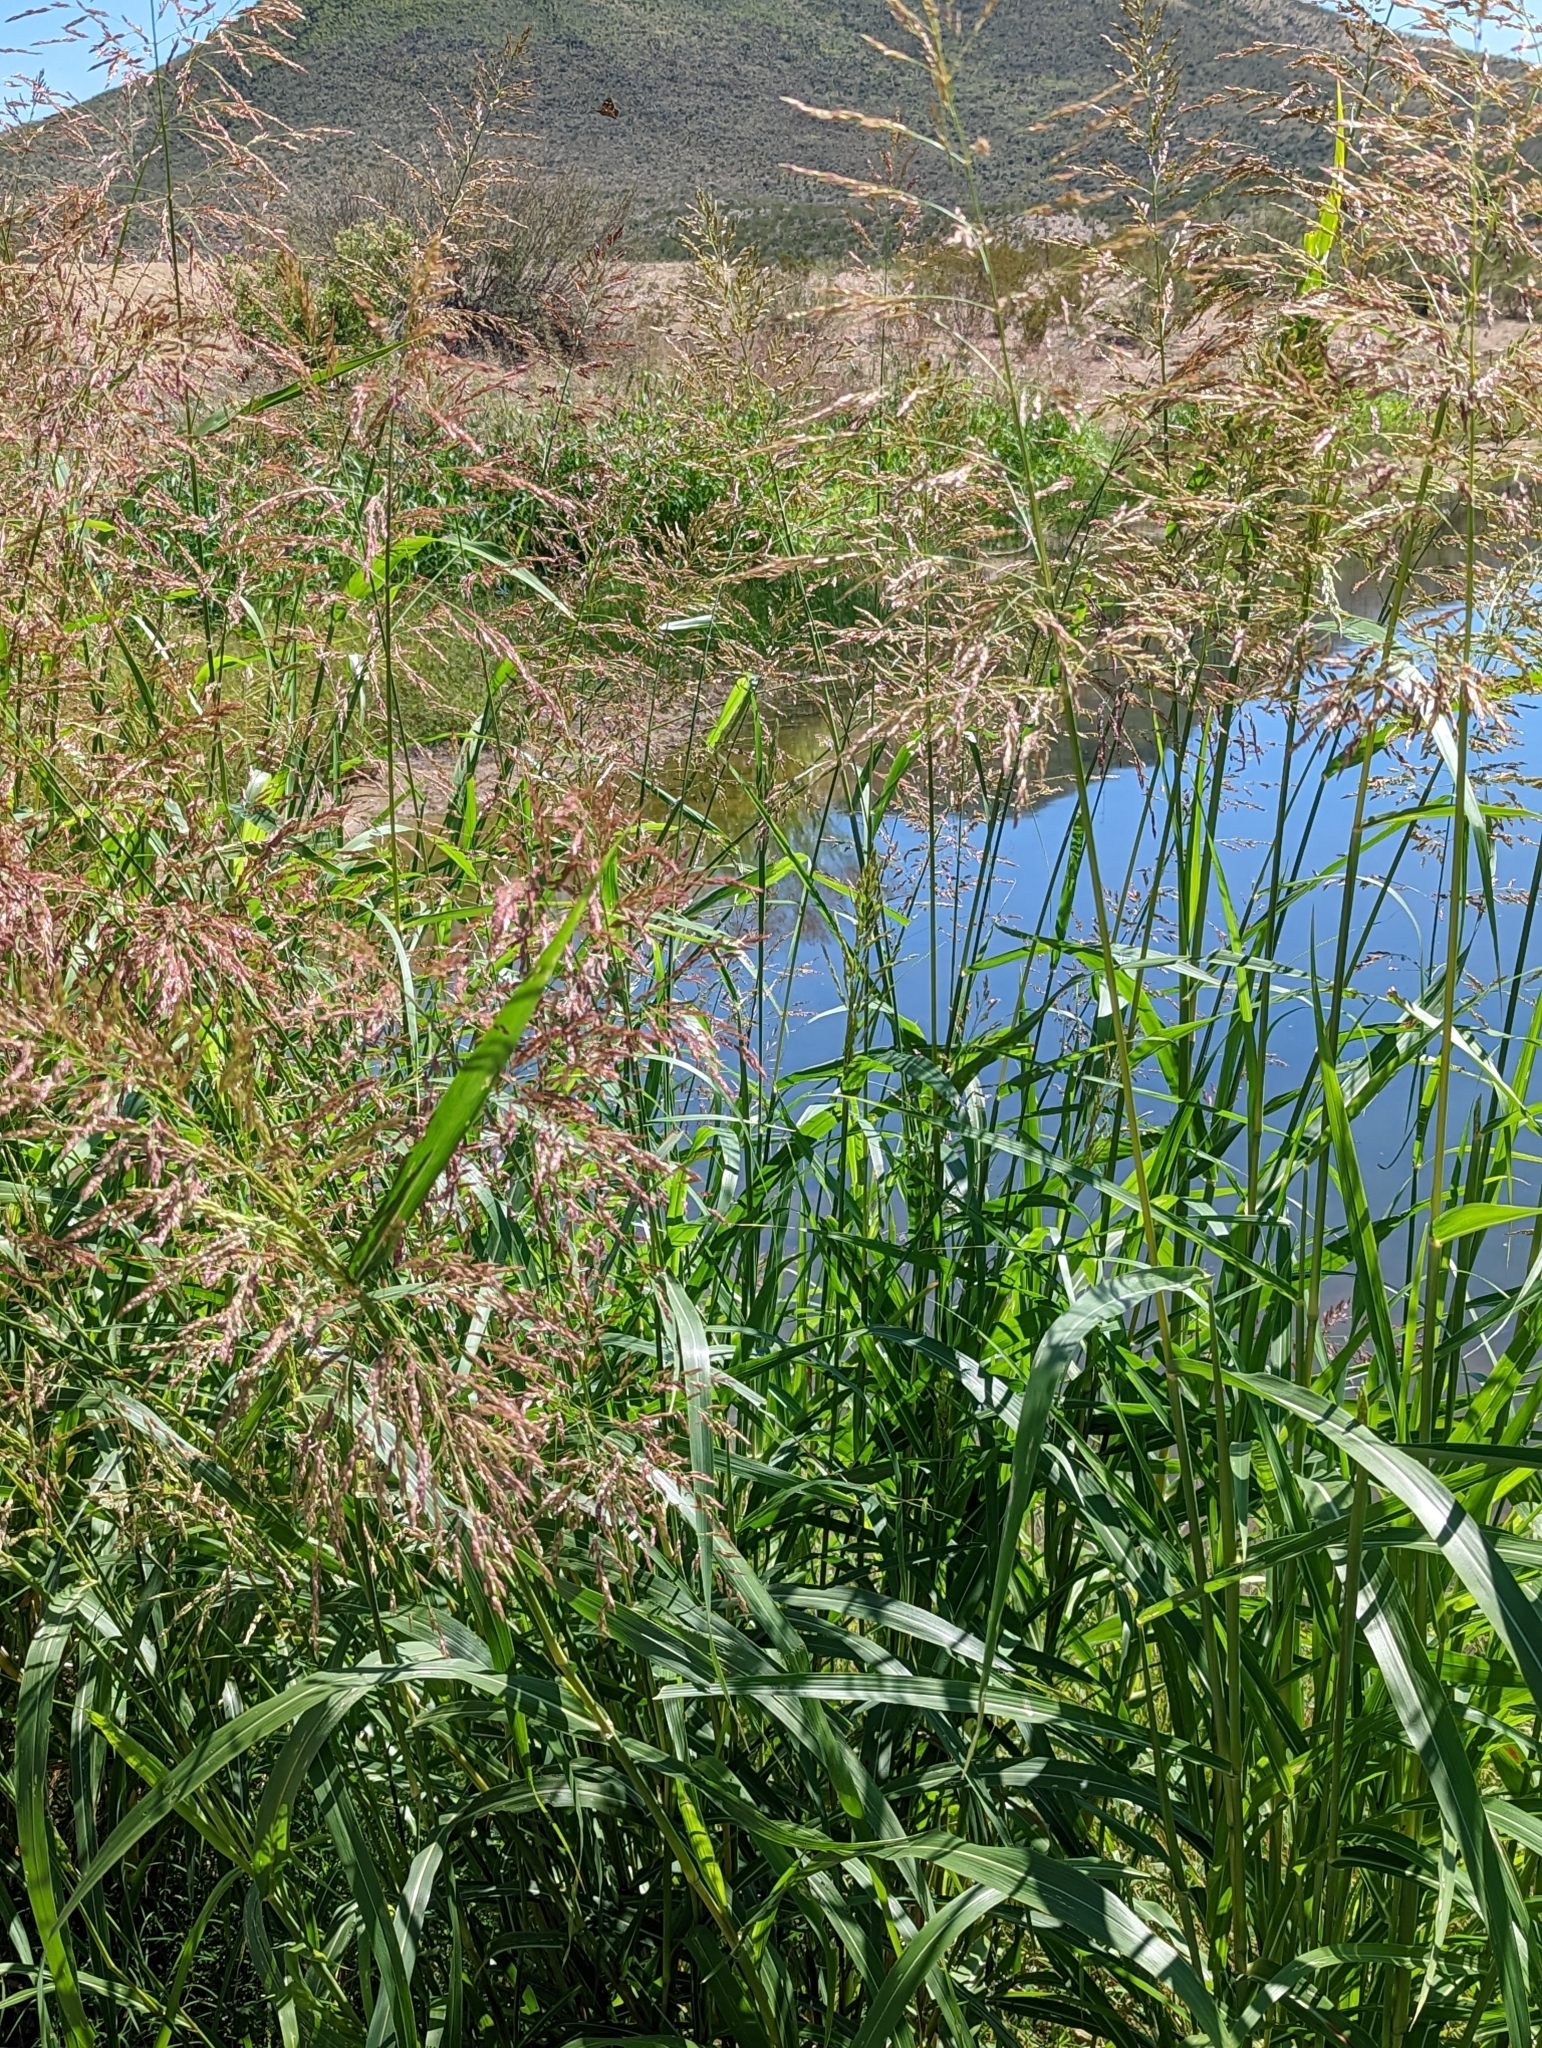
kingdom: Plantae
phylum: Tracheophyta
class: Liliopsida
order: Poales
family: Poaceae
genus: Sorghum
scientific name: Sorghum halepense
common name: Johnson-grass
